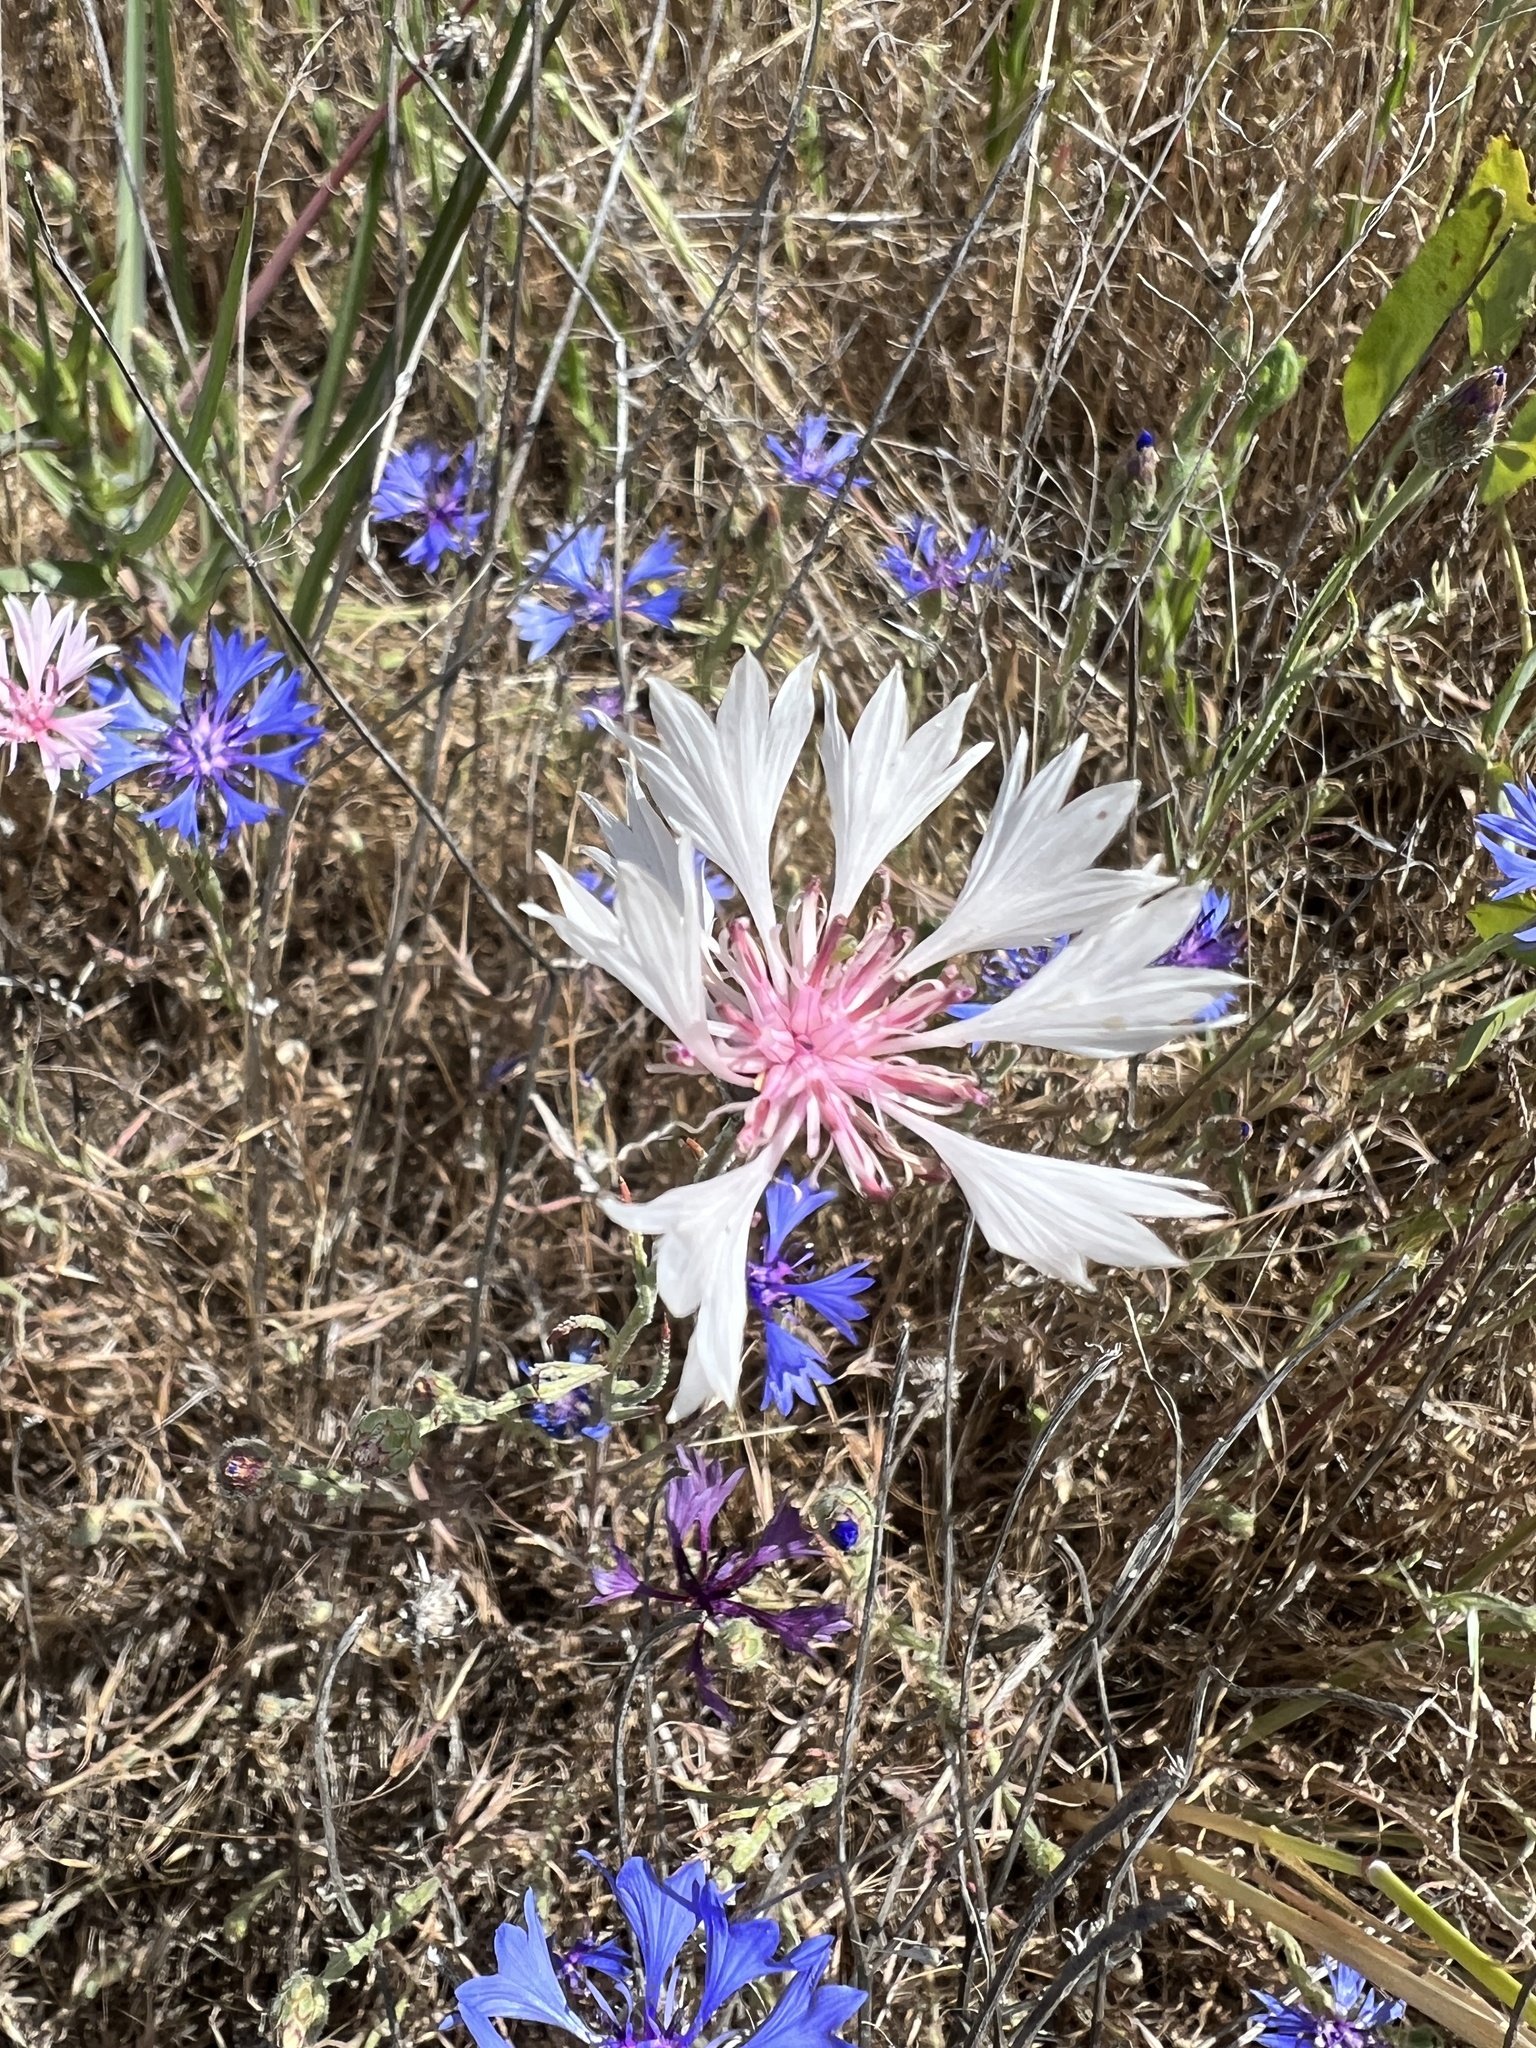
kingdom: Plantae
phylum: Tracheophyta
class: Magnoliopsida
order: Asterales
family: Asteraceae
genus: Centaurea
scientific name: Centaurea cyanus
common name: Cornflower
